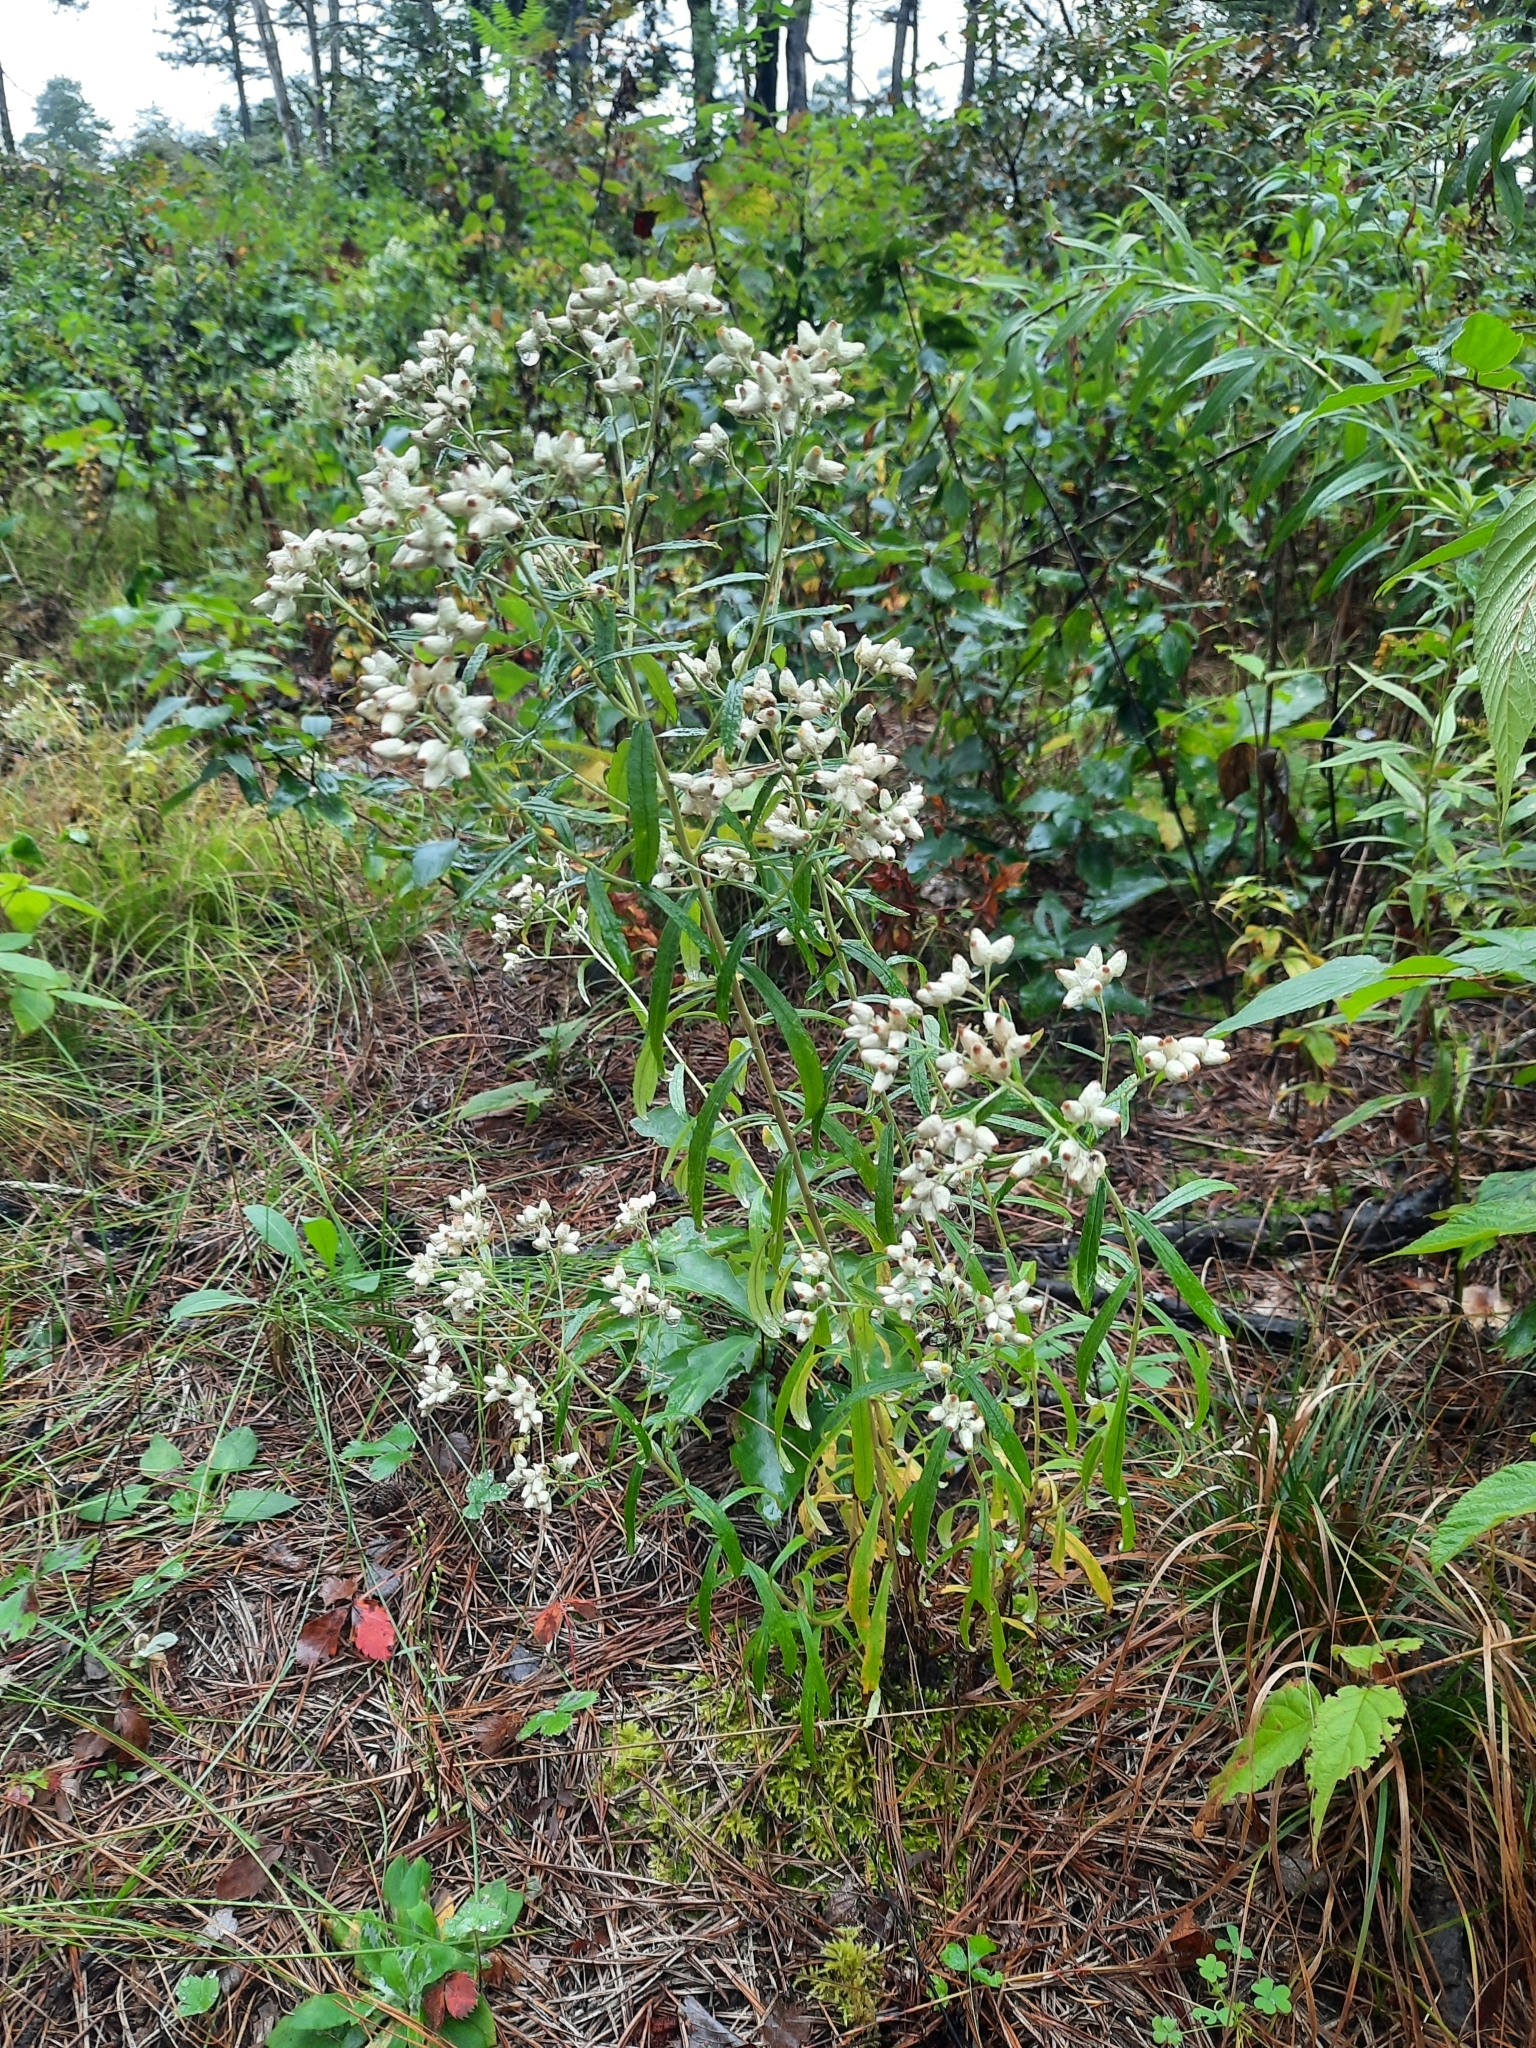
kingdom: Plantae
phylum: Tracheophyta
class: Magnoliopsida
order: Asterales
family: Asteraceae
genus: Pseudognaphalium
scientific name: Pseudognaphalium obtusifolium
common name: Eastern rabbit-tobacco
